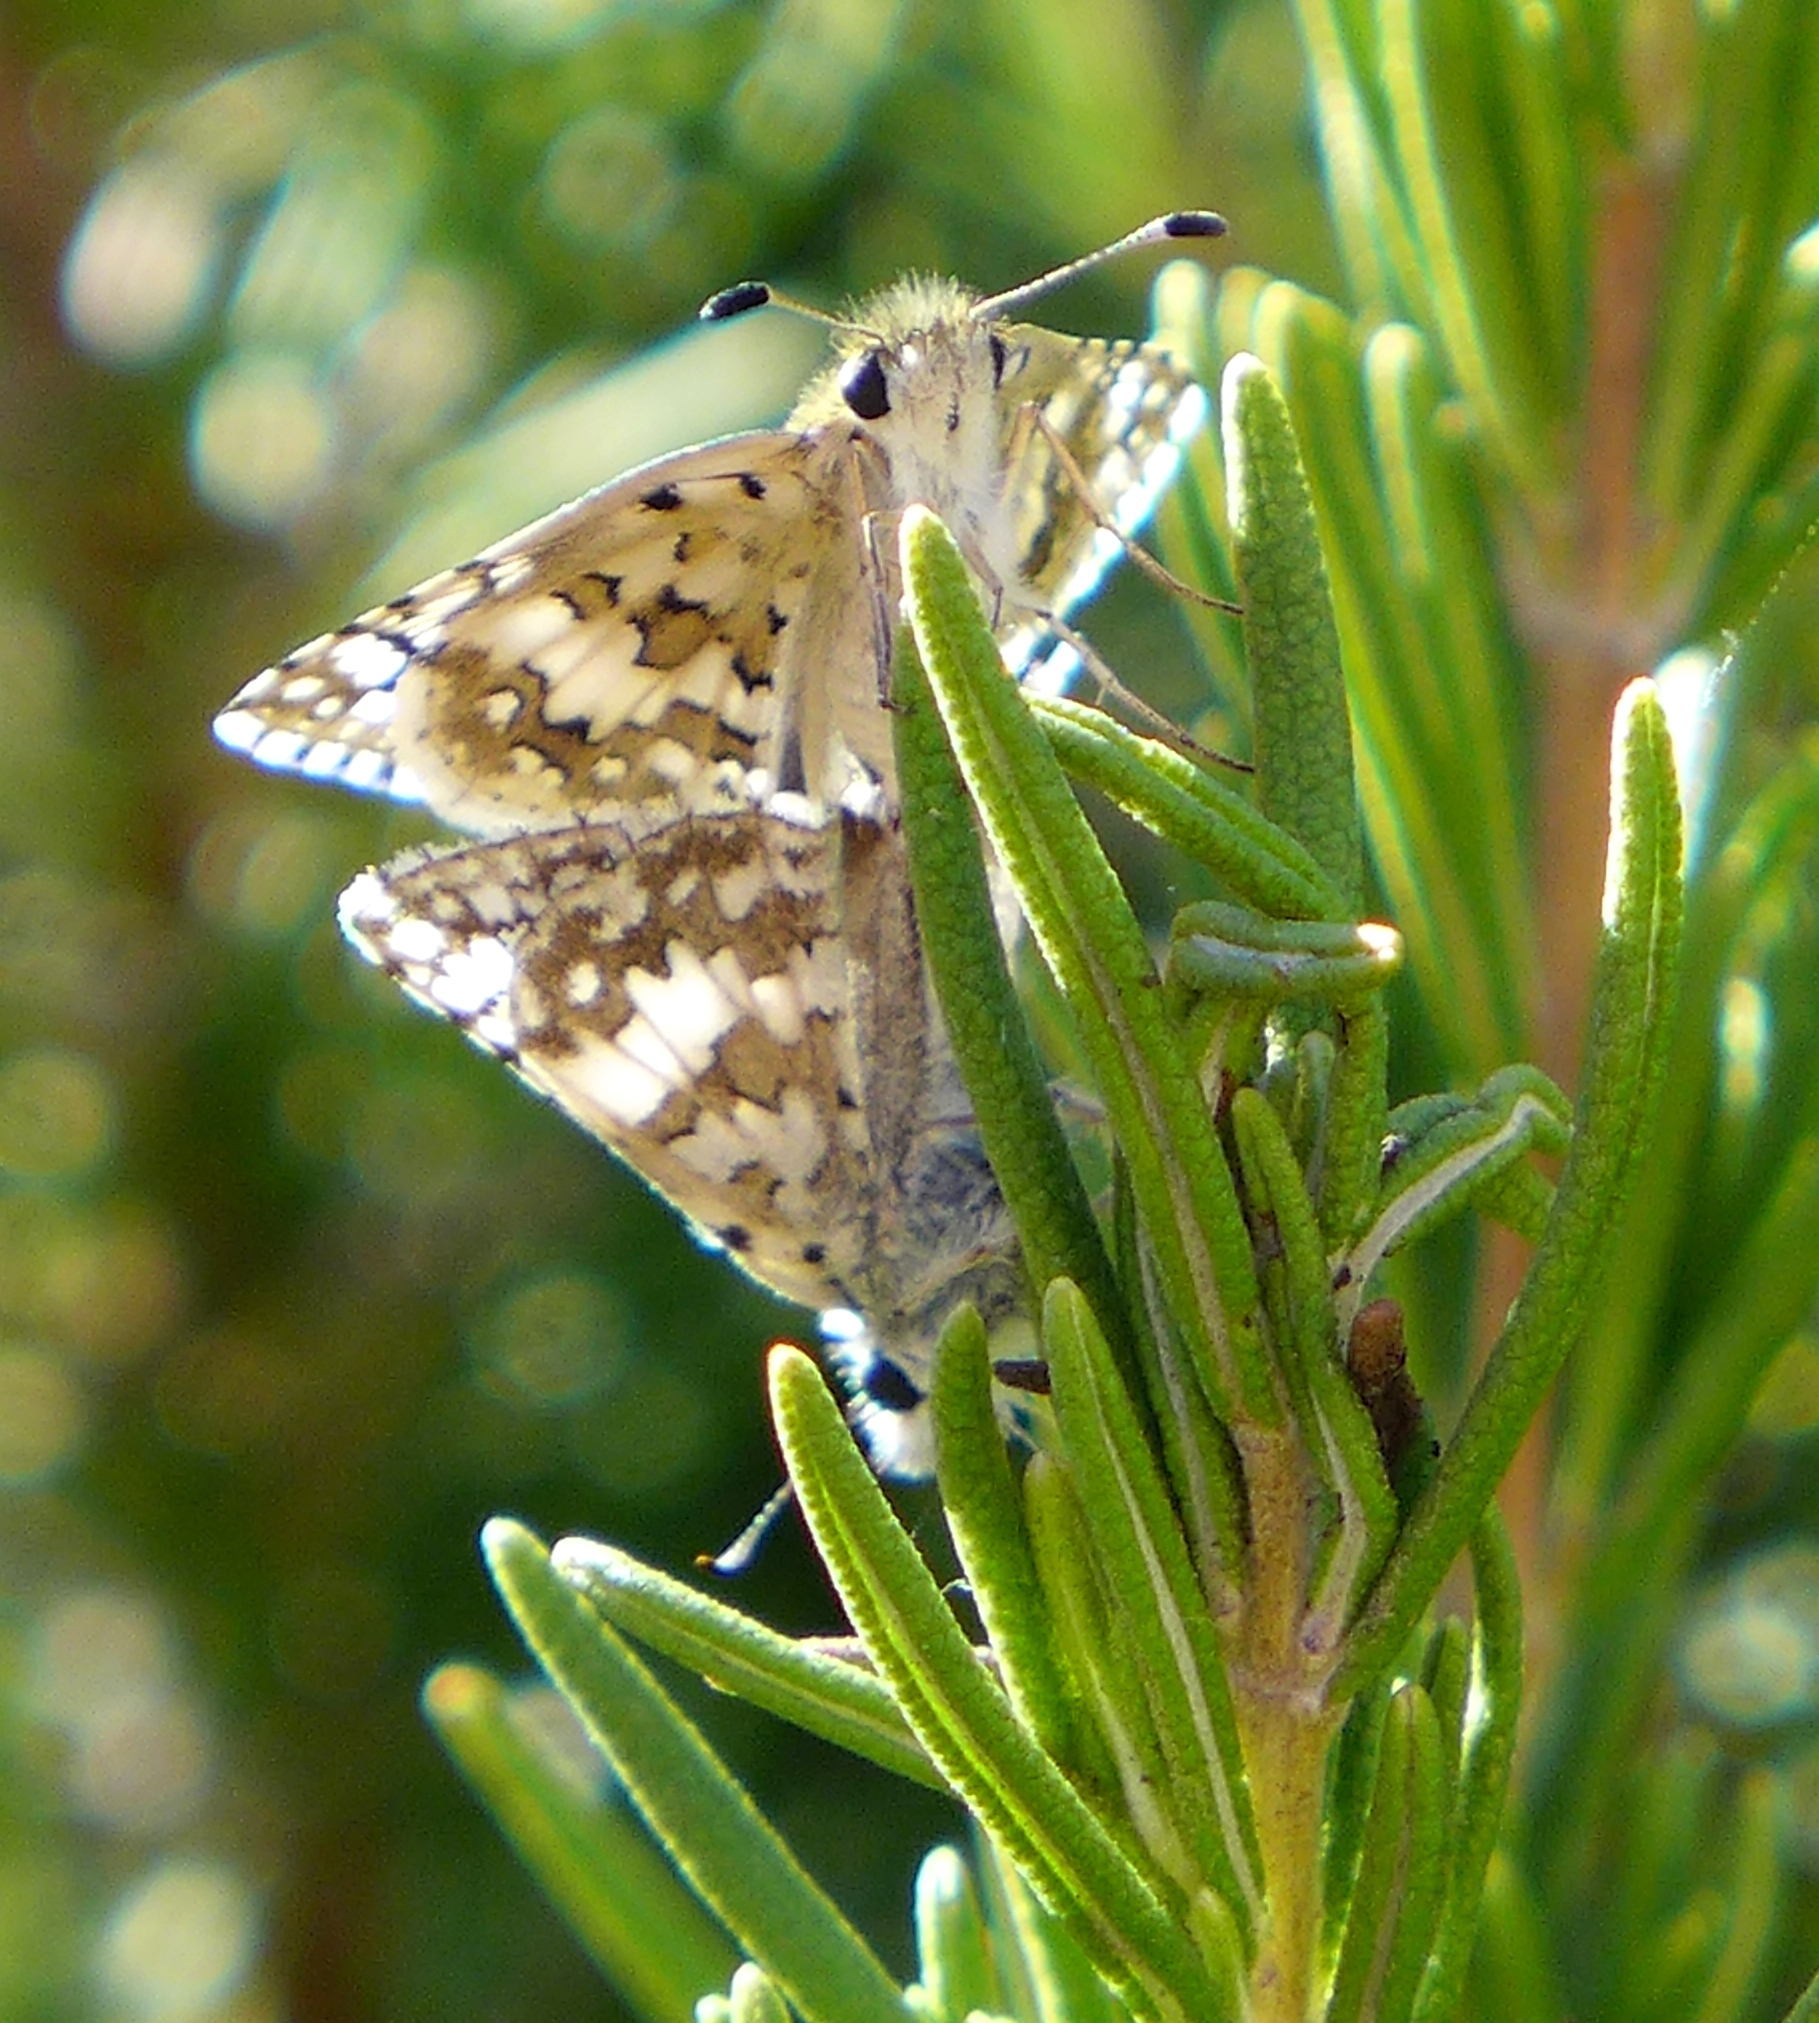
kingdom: Animalia
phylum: Arthropoda
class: Insecta
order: Lepidoptera
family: Hesperiidae
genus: Burnsius
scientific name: Burnsius communis
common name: Common checkered-skipper
